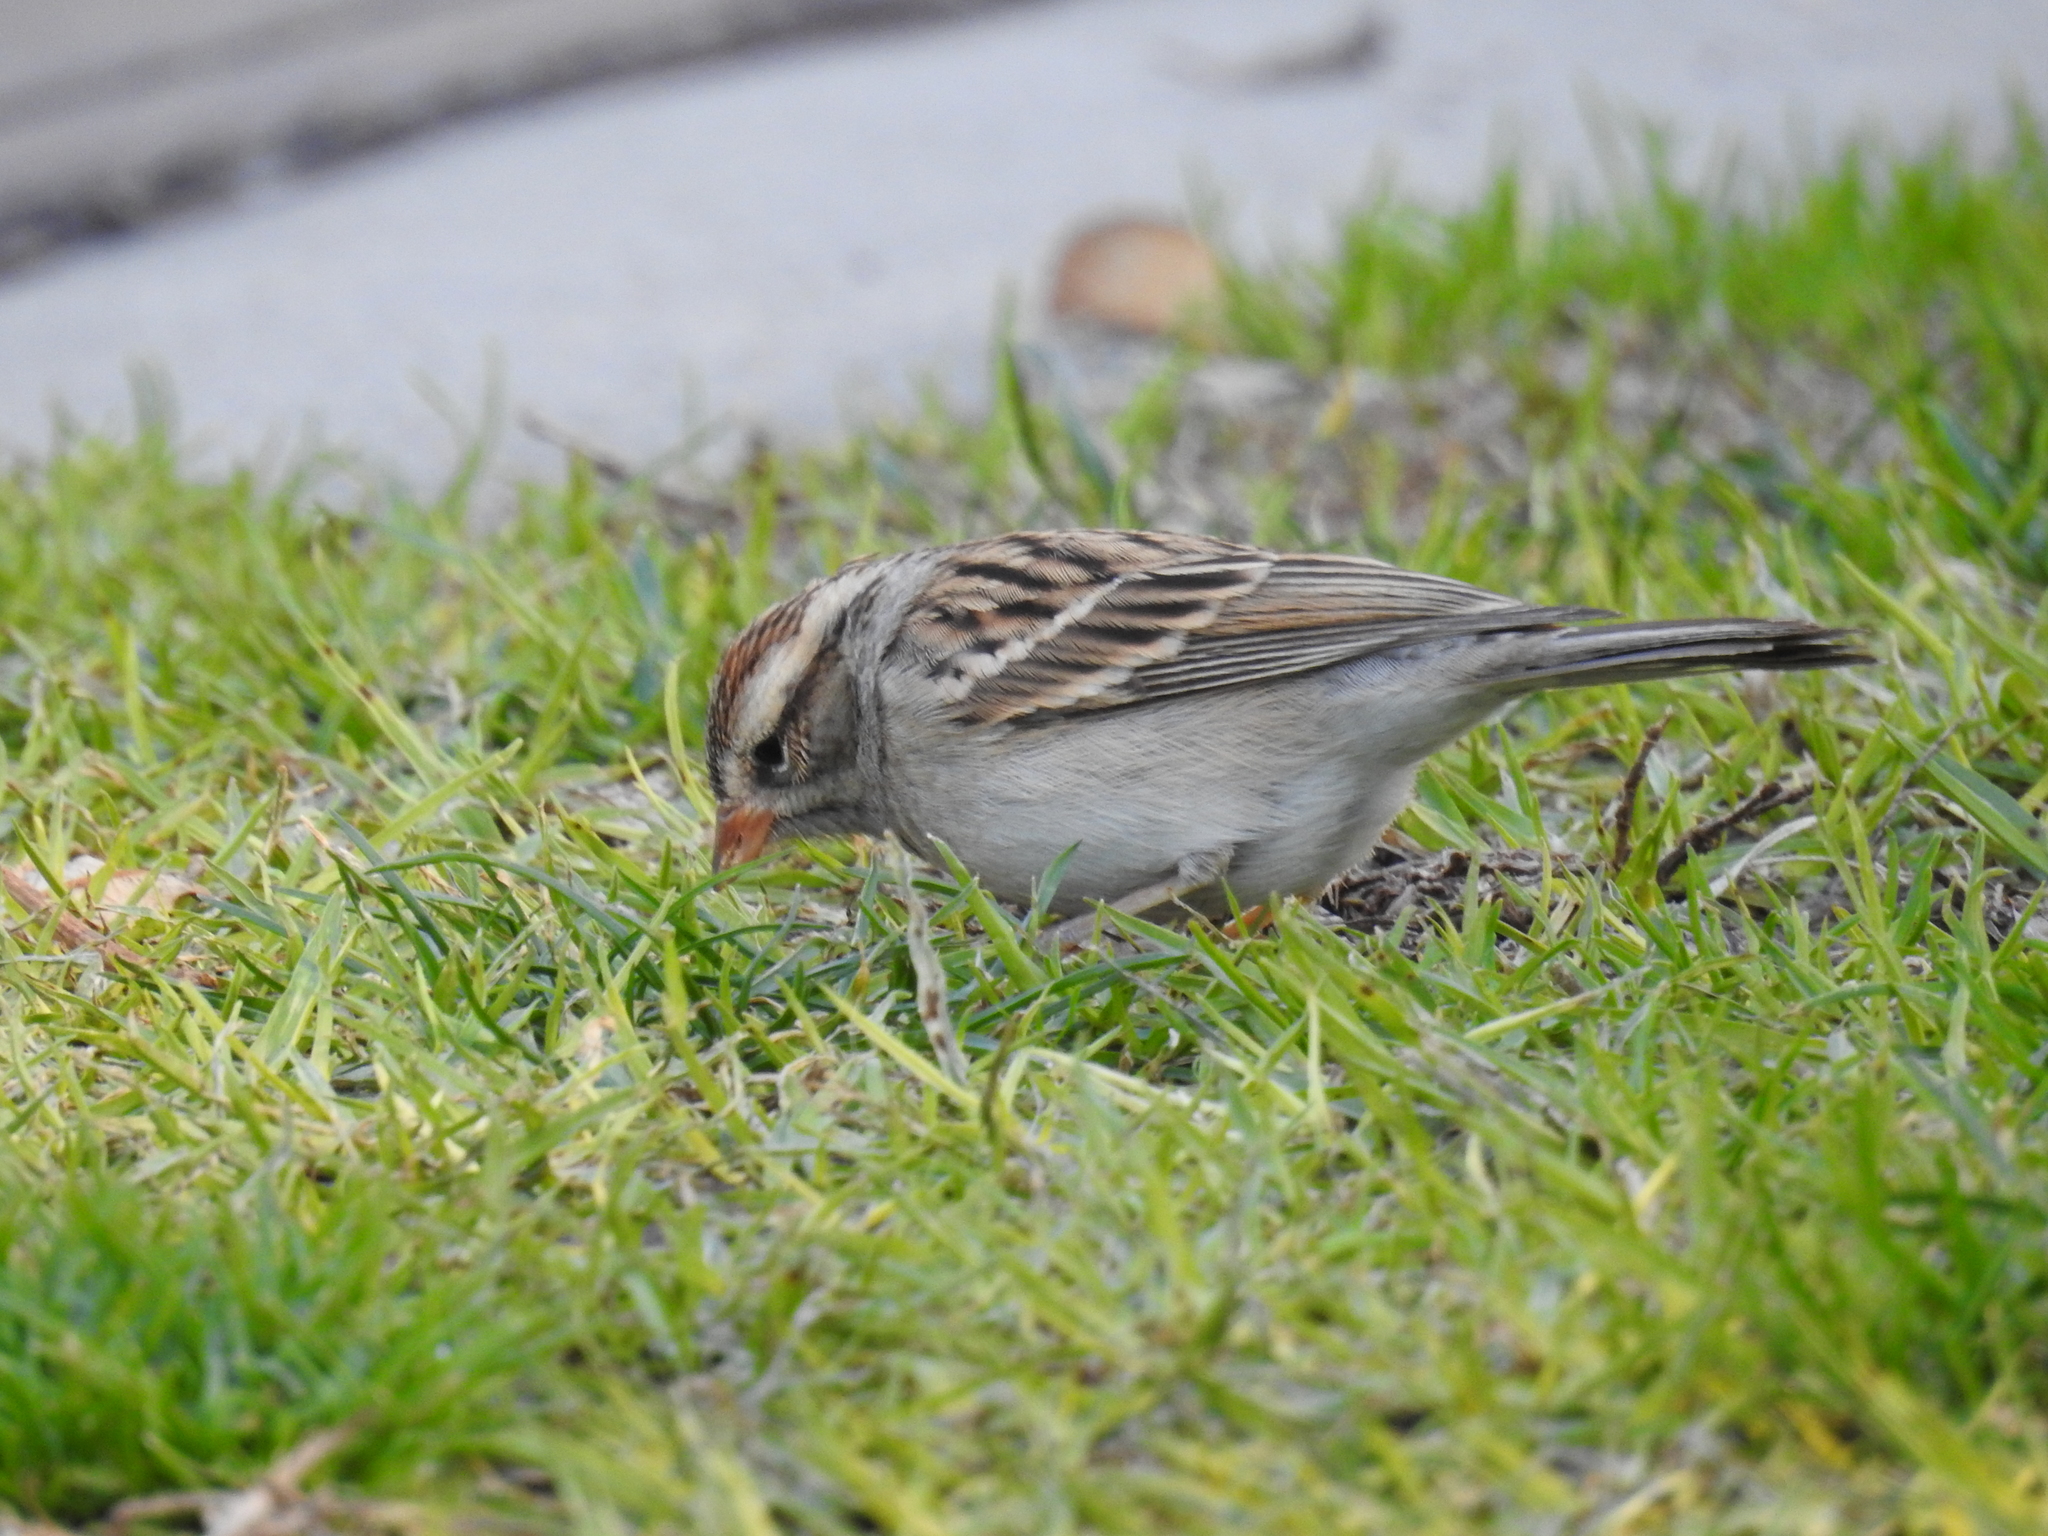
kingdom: Animalia
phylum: Chordata
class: Aves
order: Passeriformes
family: Passerellidae
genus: Spizella
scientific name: Spizella passerina
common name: Chipping sparrow
